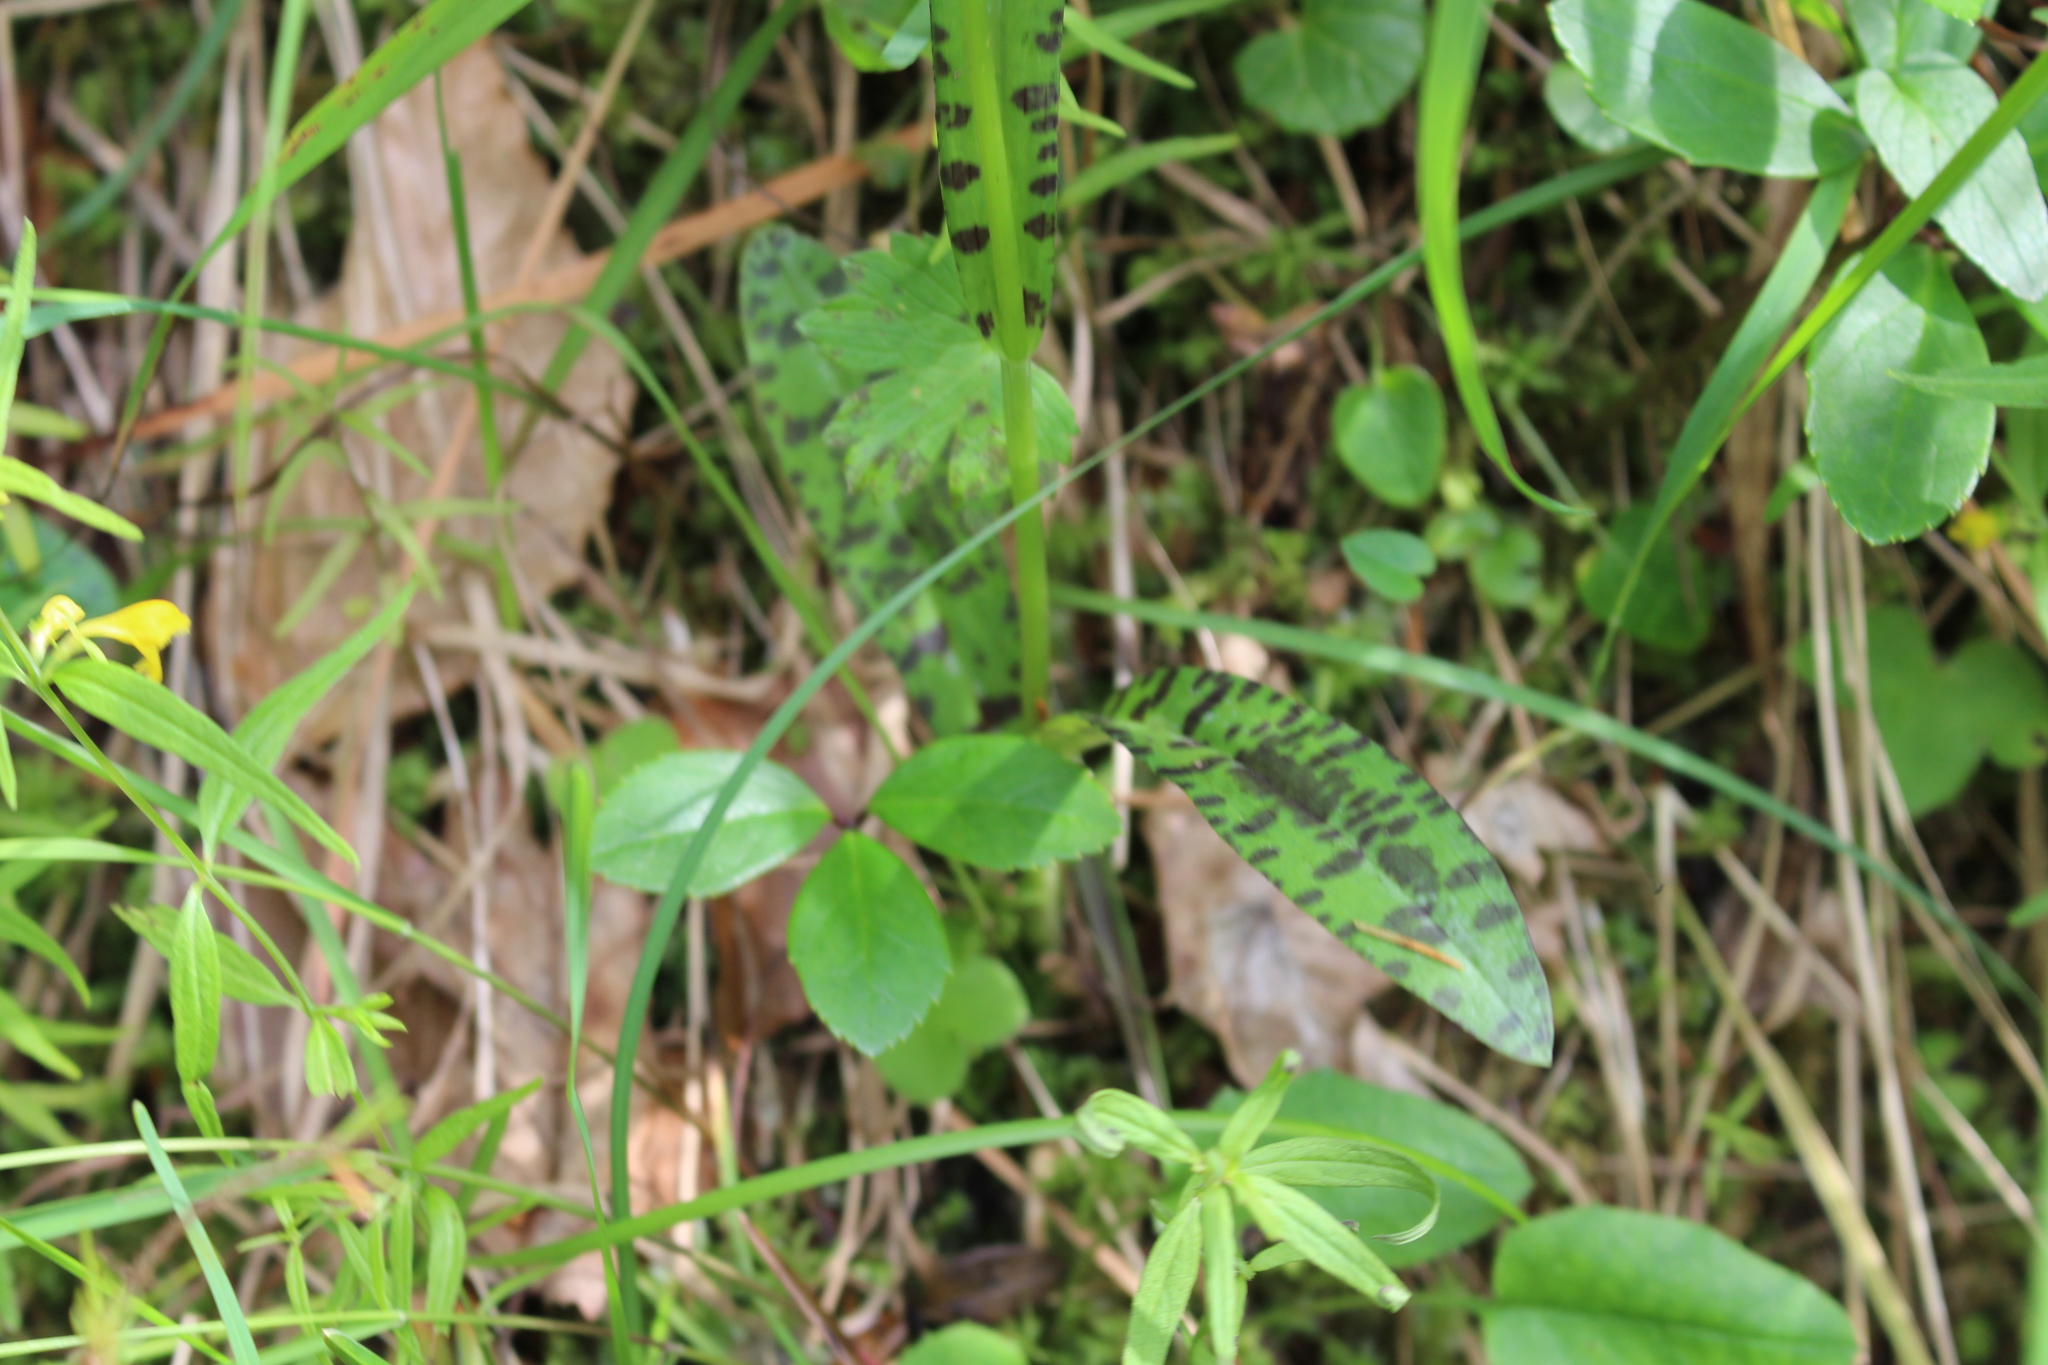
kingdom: Plantae
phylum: Tracheophyta
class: Liliopsida
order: Asparagales
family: Orchidaceae
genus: Dactylorhiza
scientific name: Dactylorhiza maculata
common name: Heath spotted-orchid
